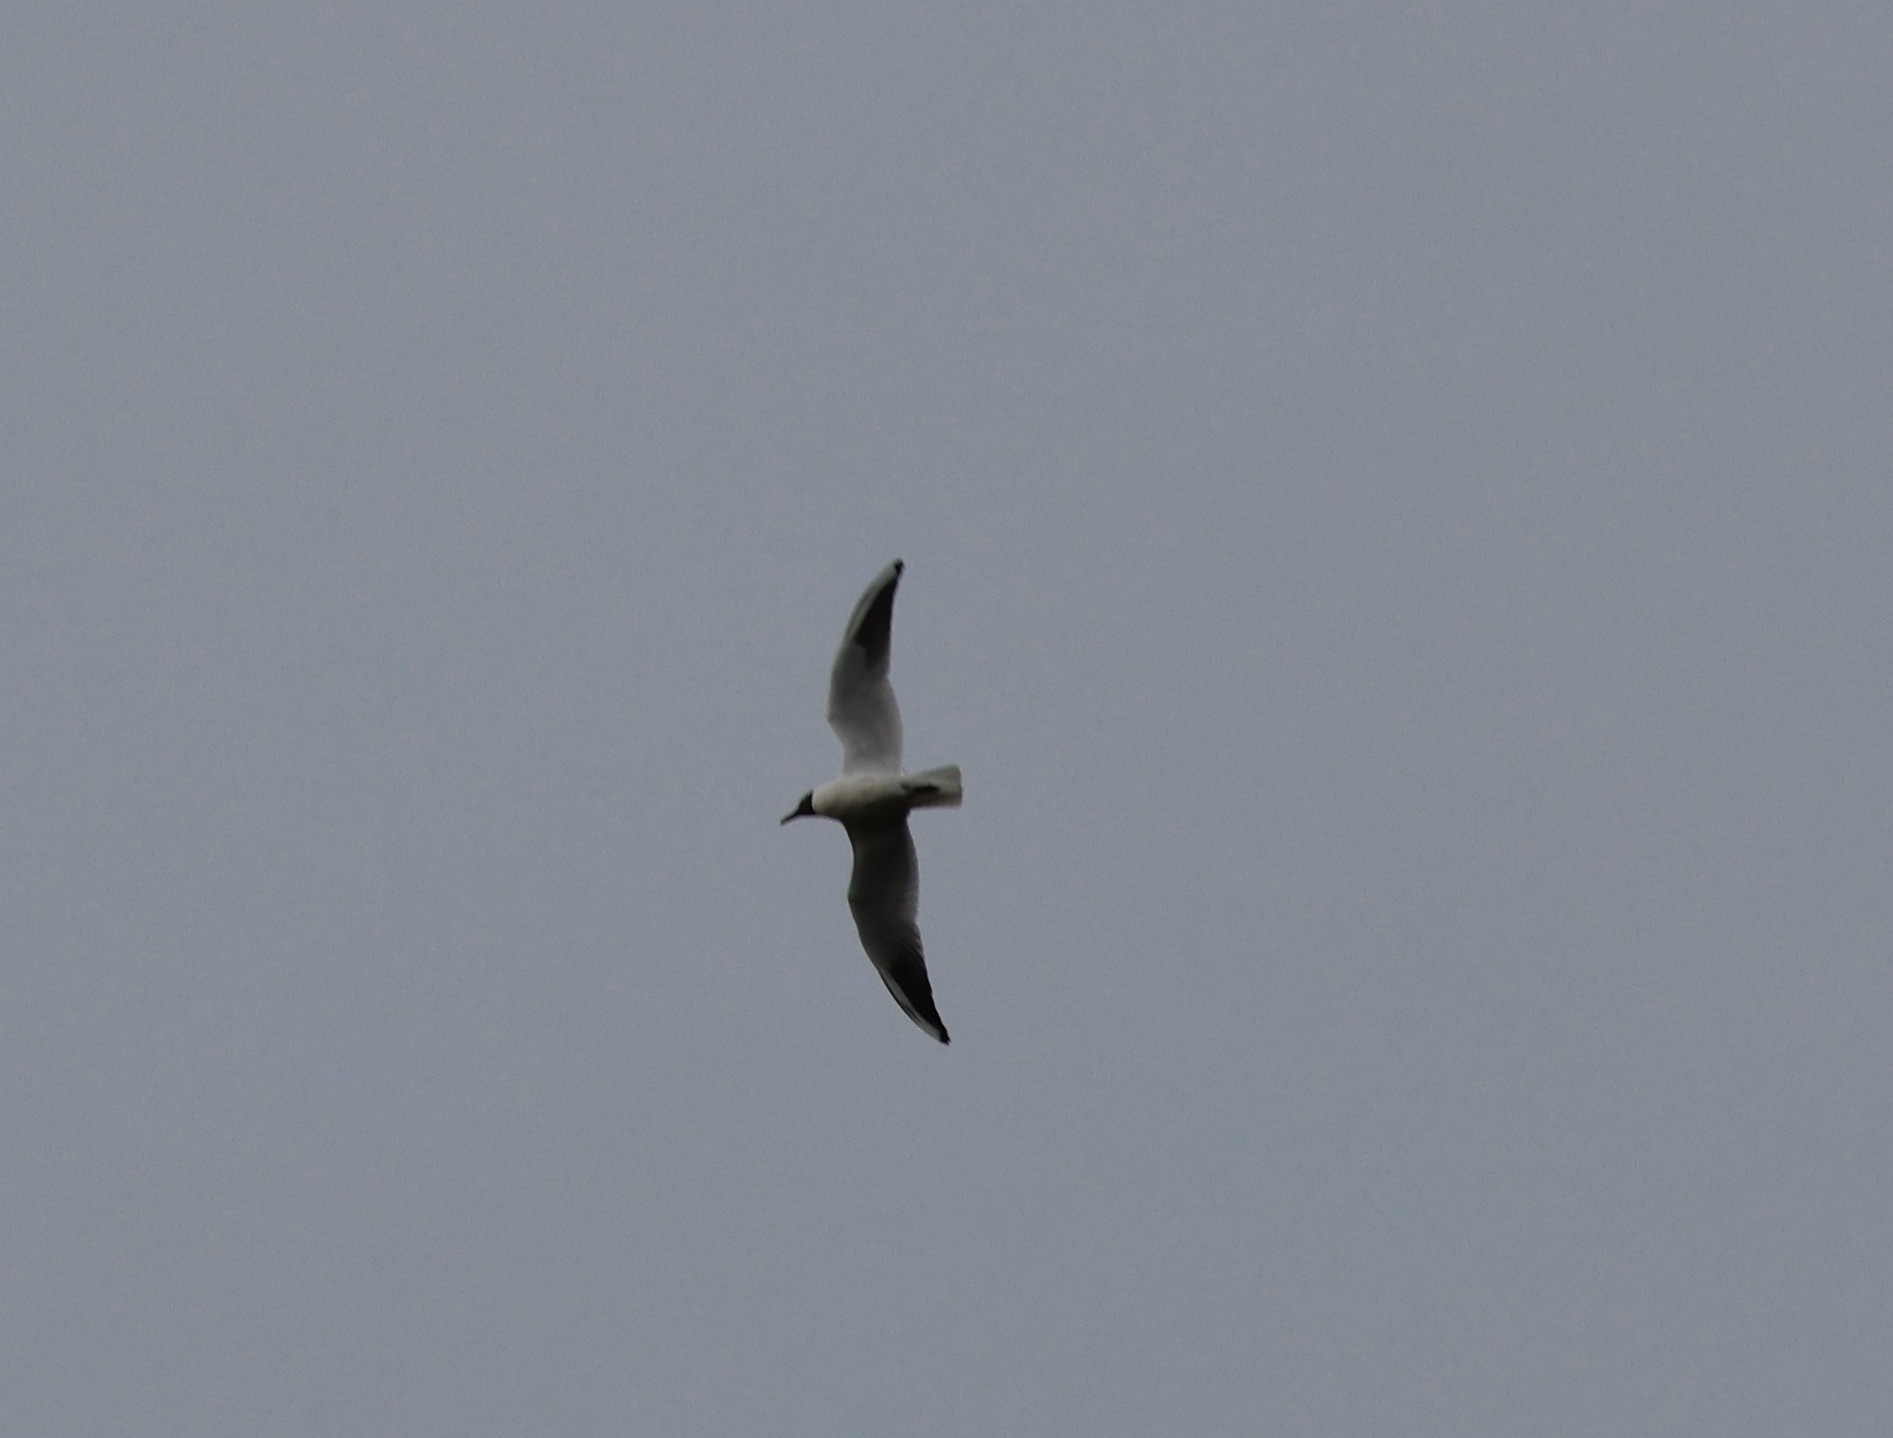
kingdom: Animalia
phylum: Chordata
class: Aves
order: Charadriiformes
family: Laridae
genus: Chroicocephalus
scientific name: Chroicocephalus ridibundus
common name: Black-headed gull
